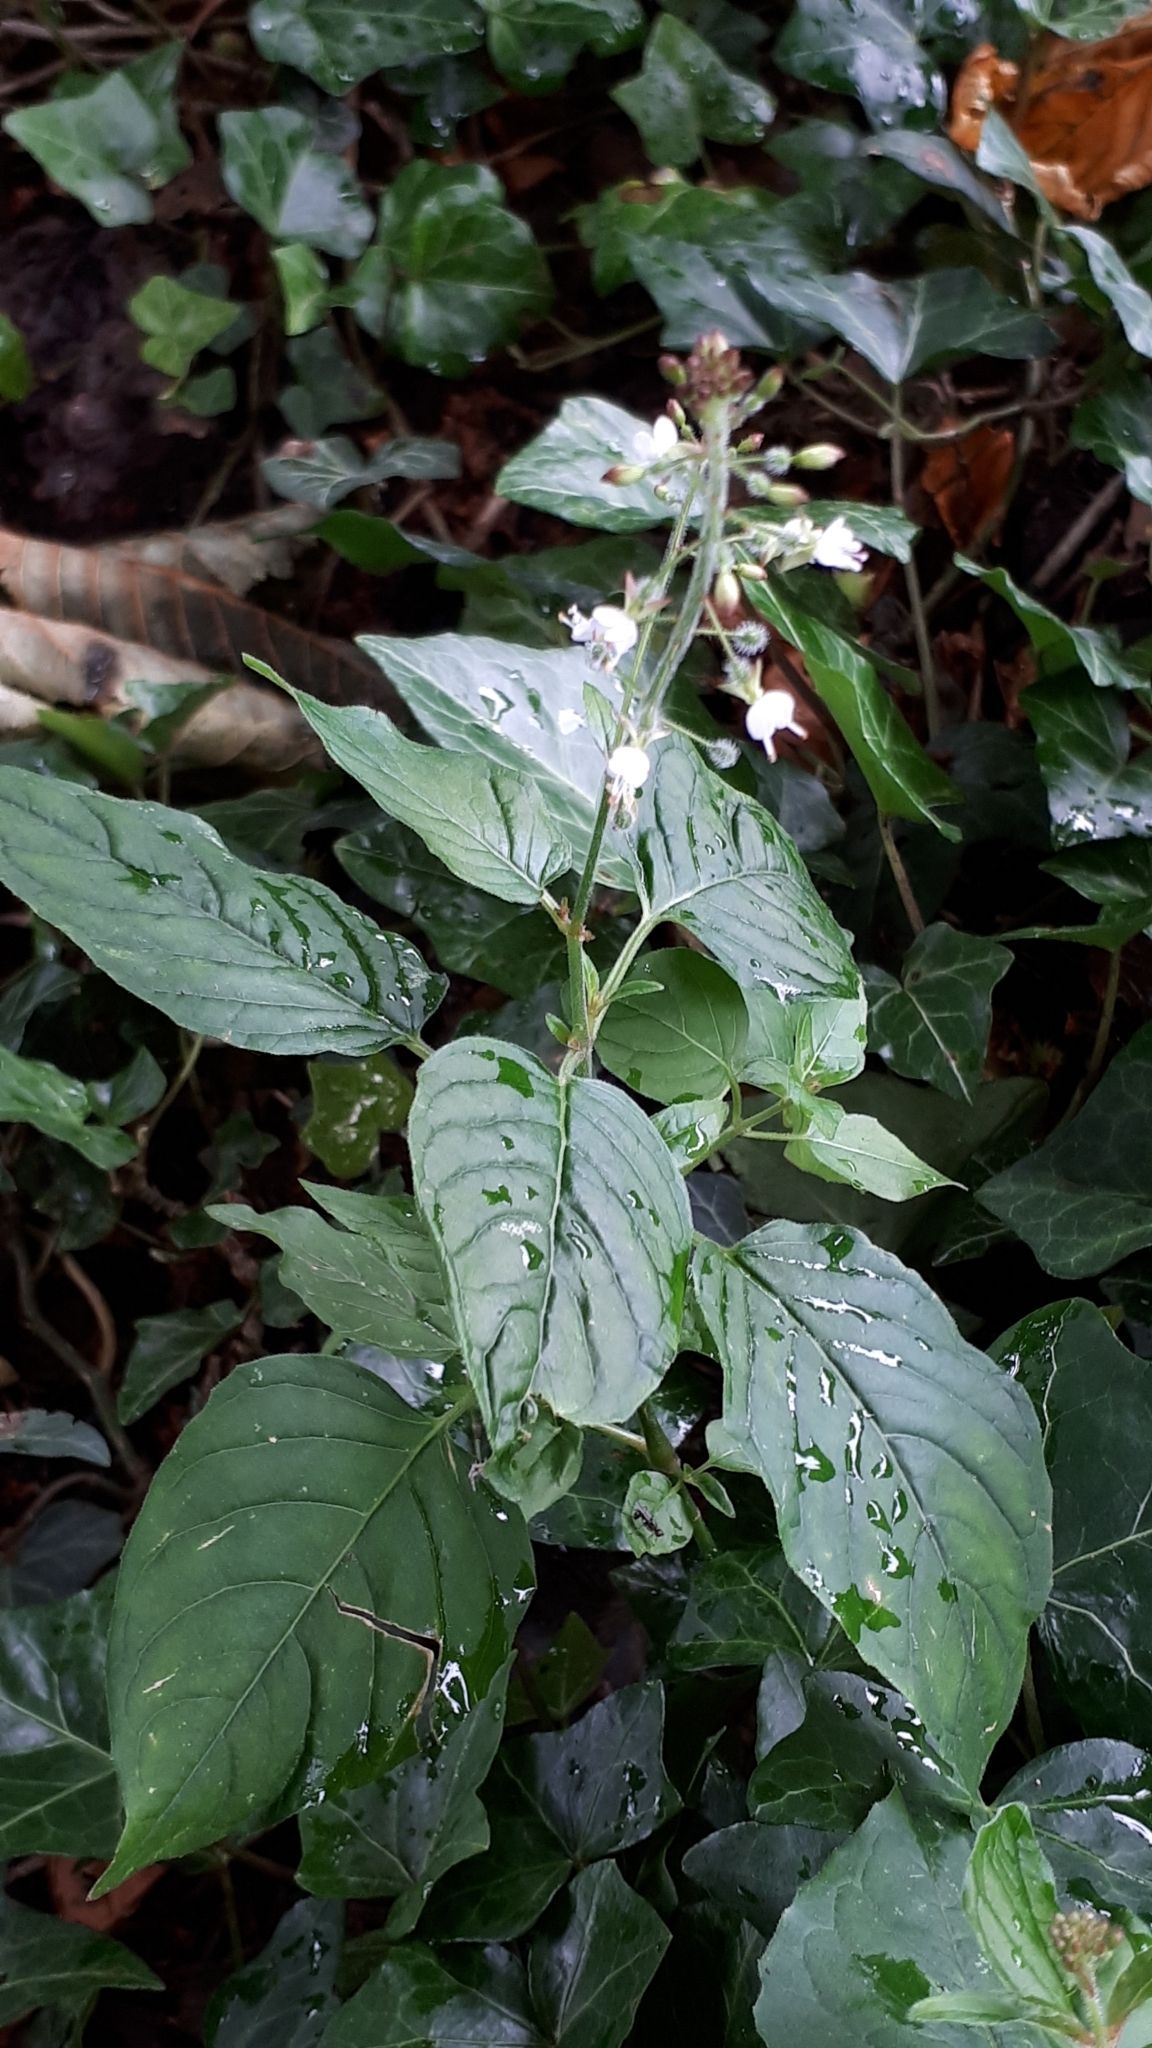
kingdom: Plantae
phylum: Tracheophyta
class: Magnoliopsida
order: Myrtales
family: Onagraceae
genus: Circaea
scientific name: Circaea lutetiana
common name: Enchanter's-nightshade
